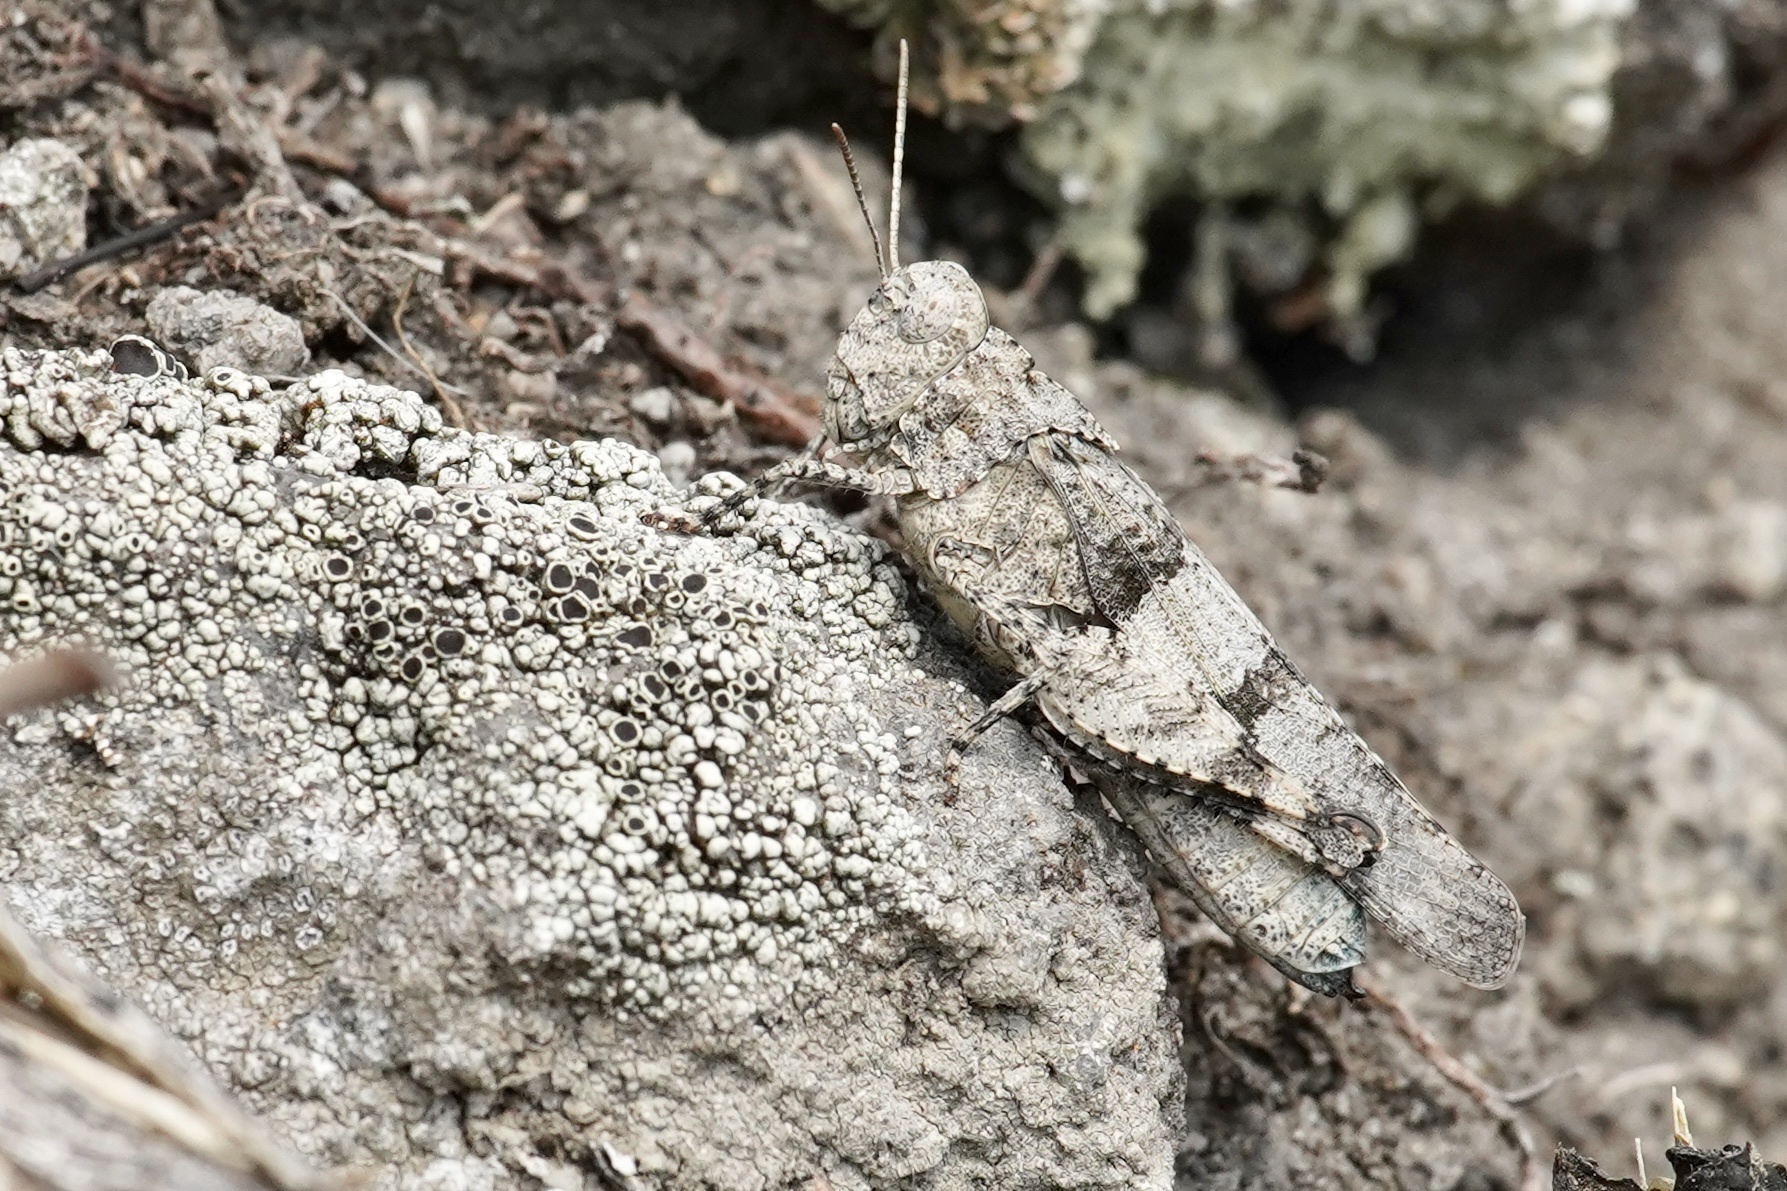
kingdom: Animalia
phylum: Arthropoda
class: Insecta
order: Orthoptera
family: Acrididae
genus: Oedipoda
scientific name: Oedipoda caerulescens
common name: Blue-winged grasshopper
